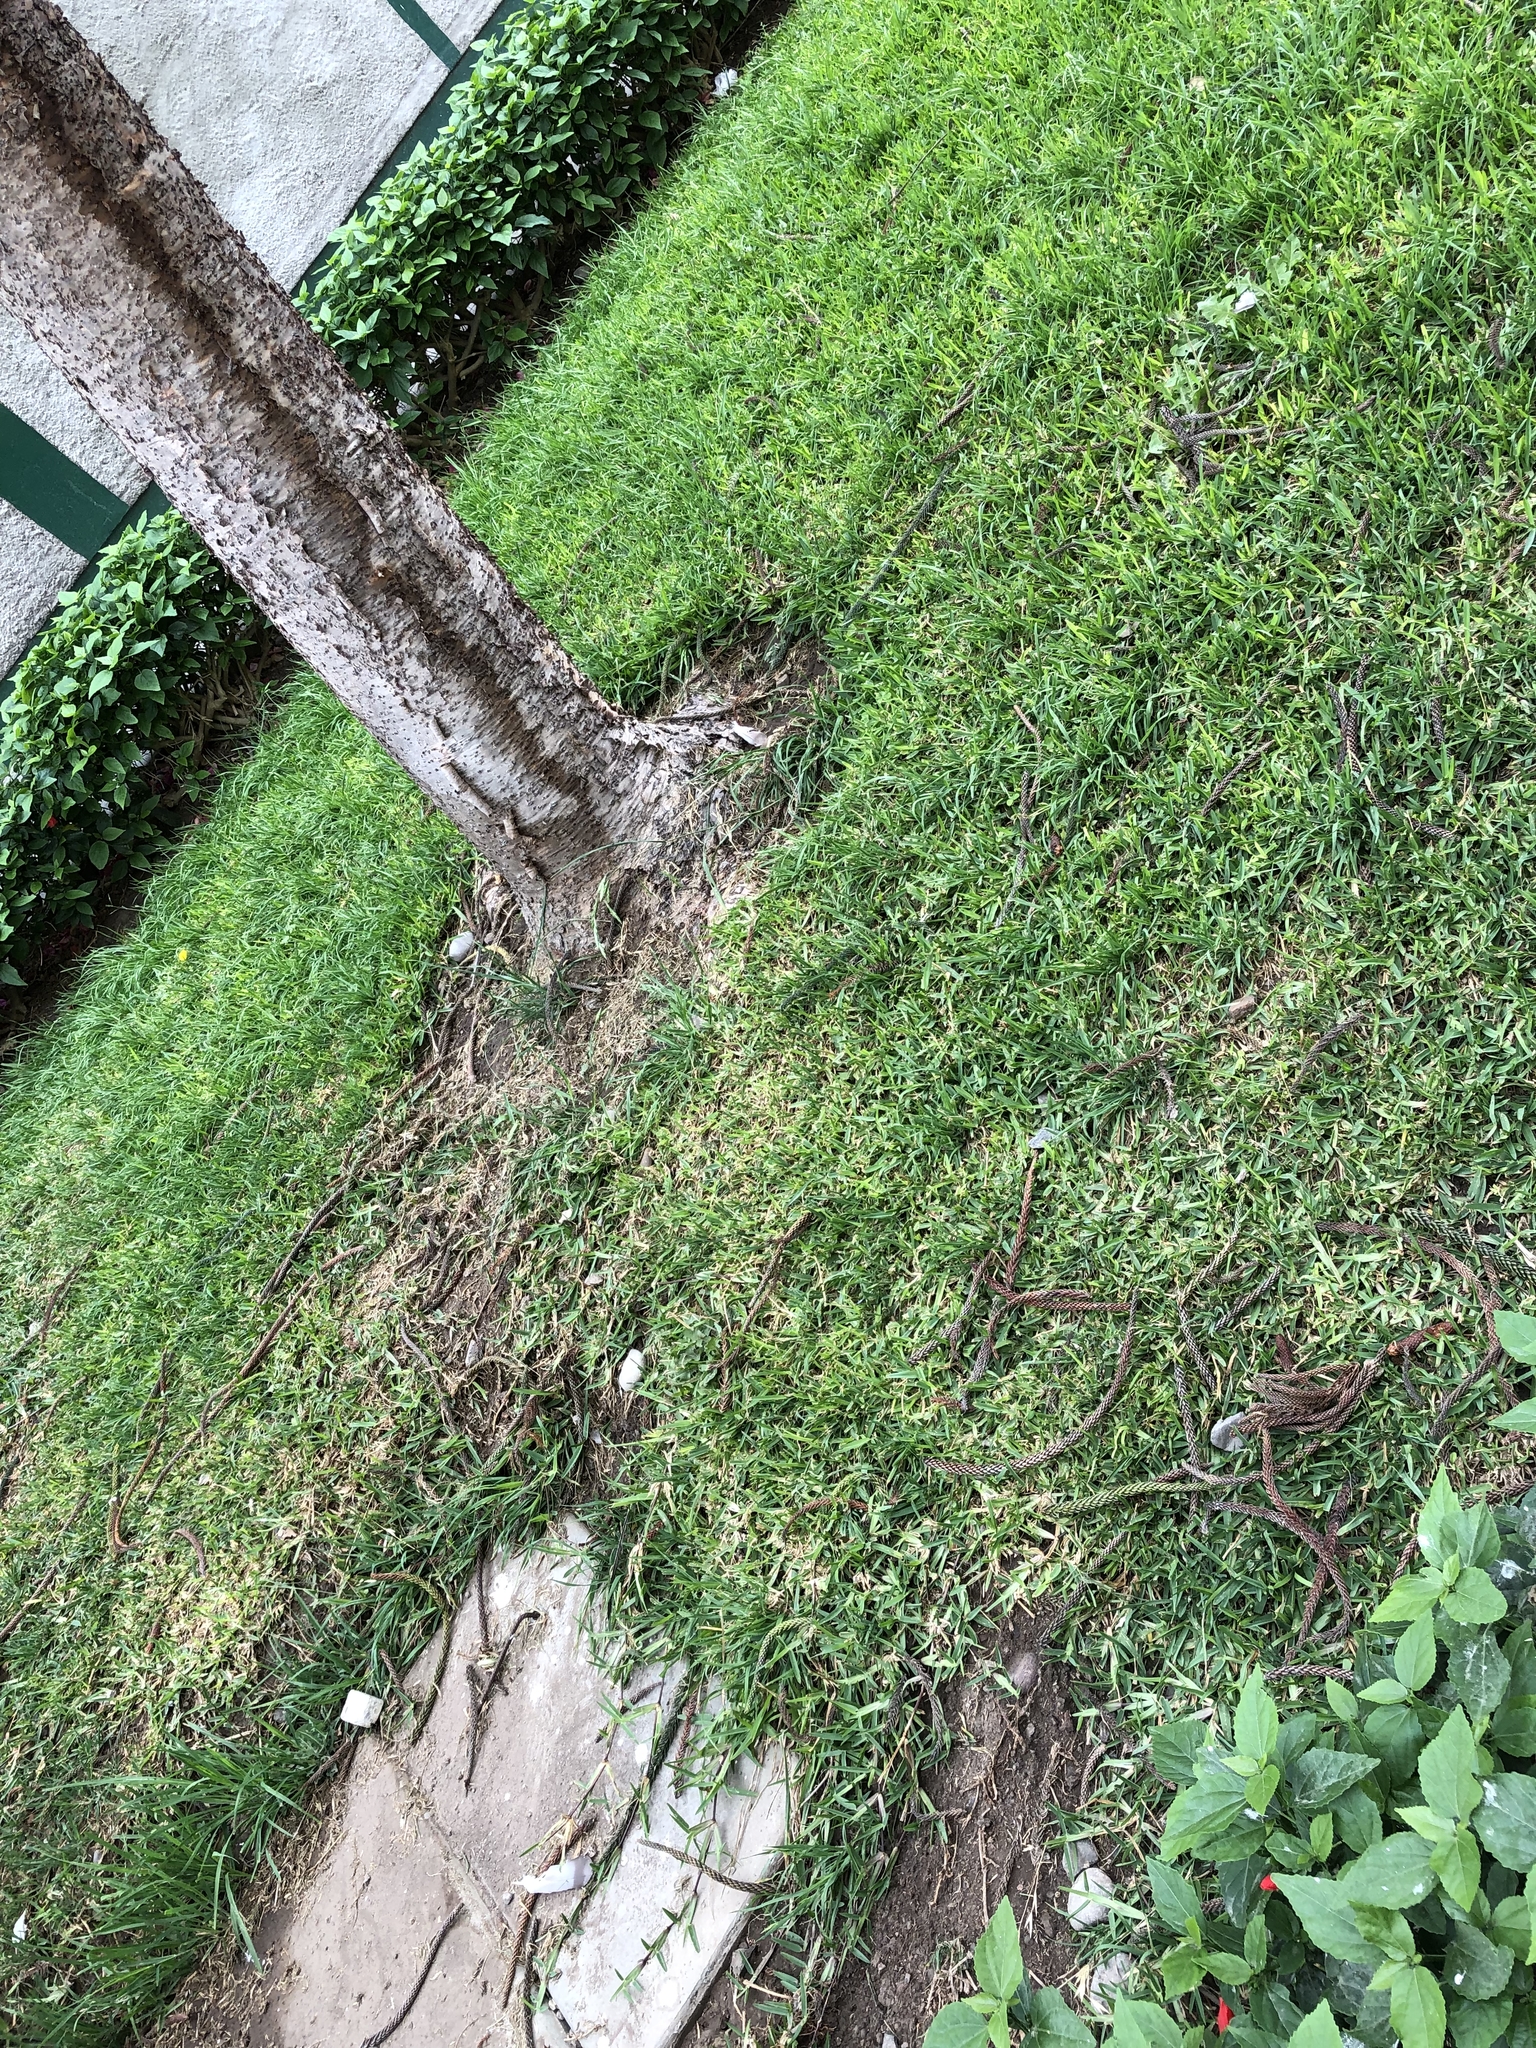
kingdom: Animalia
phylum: Chordata
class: Aves
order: Columbiformes
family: Columbidae
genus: Columba
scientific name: Columba livia
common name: Rock pigeon
